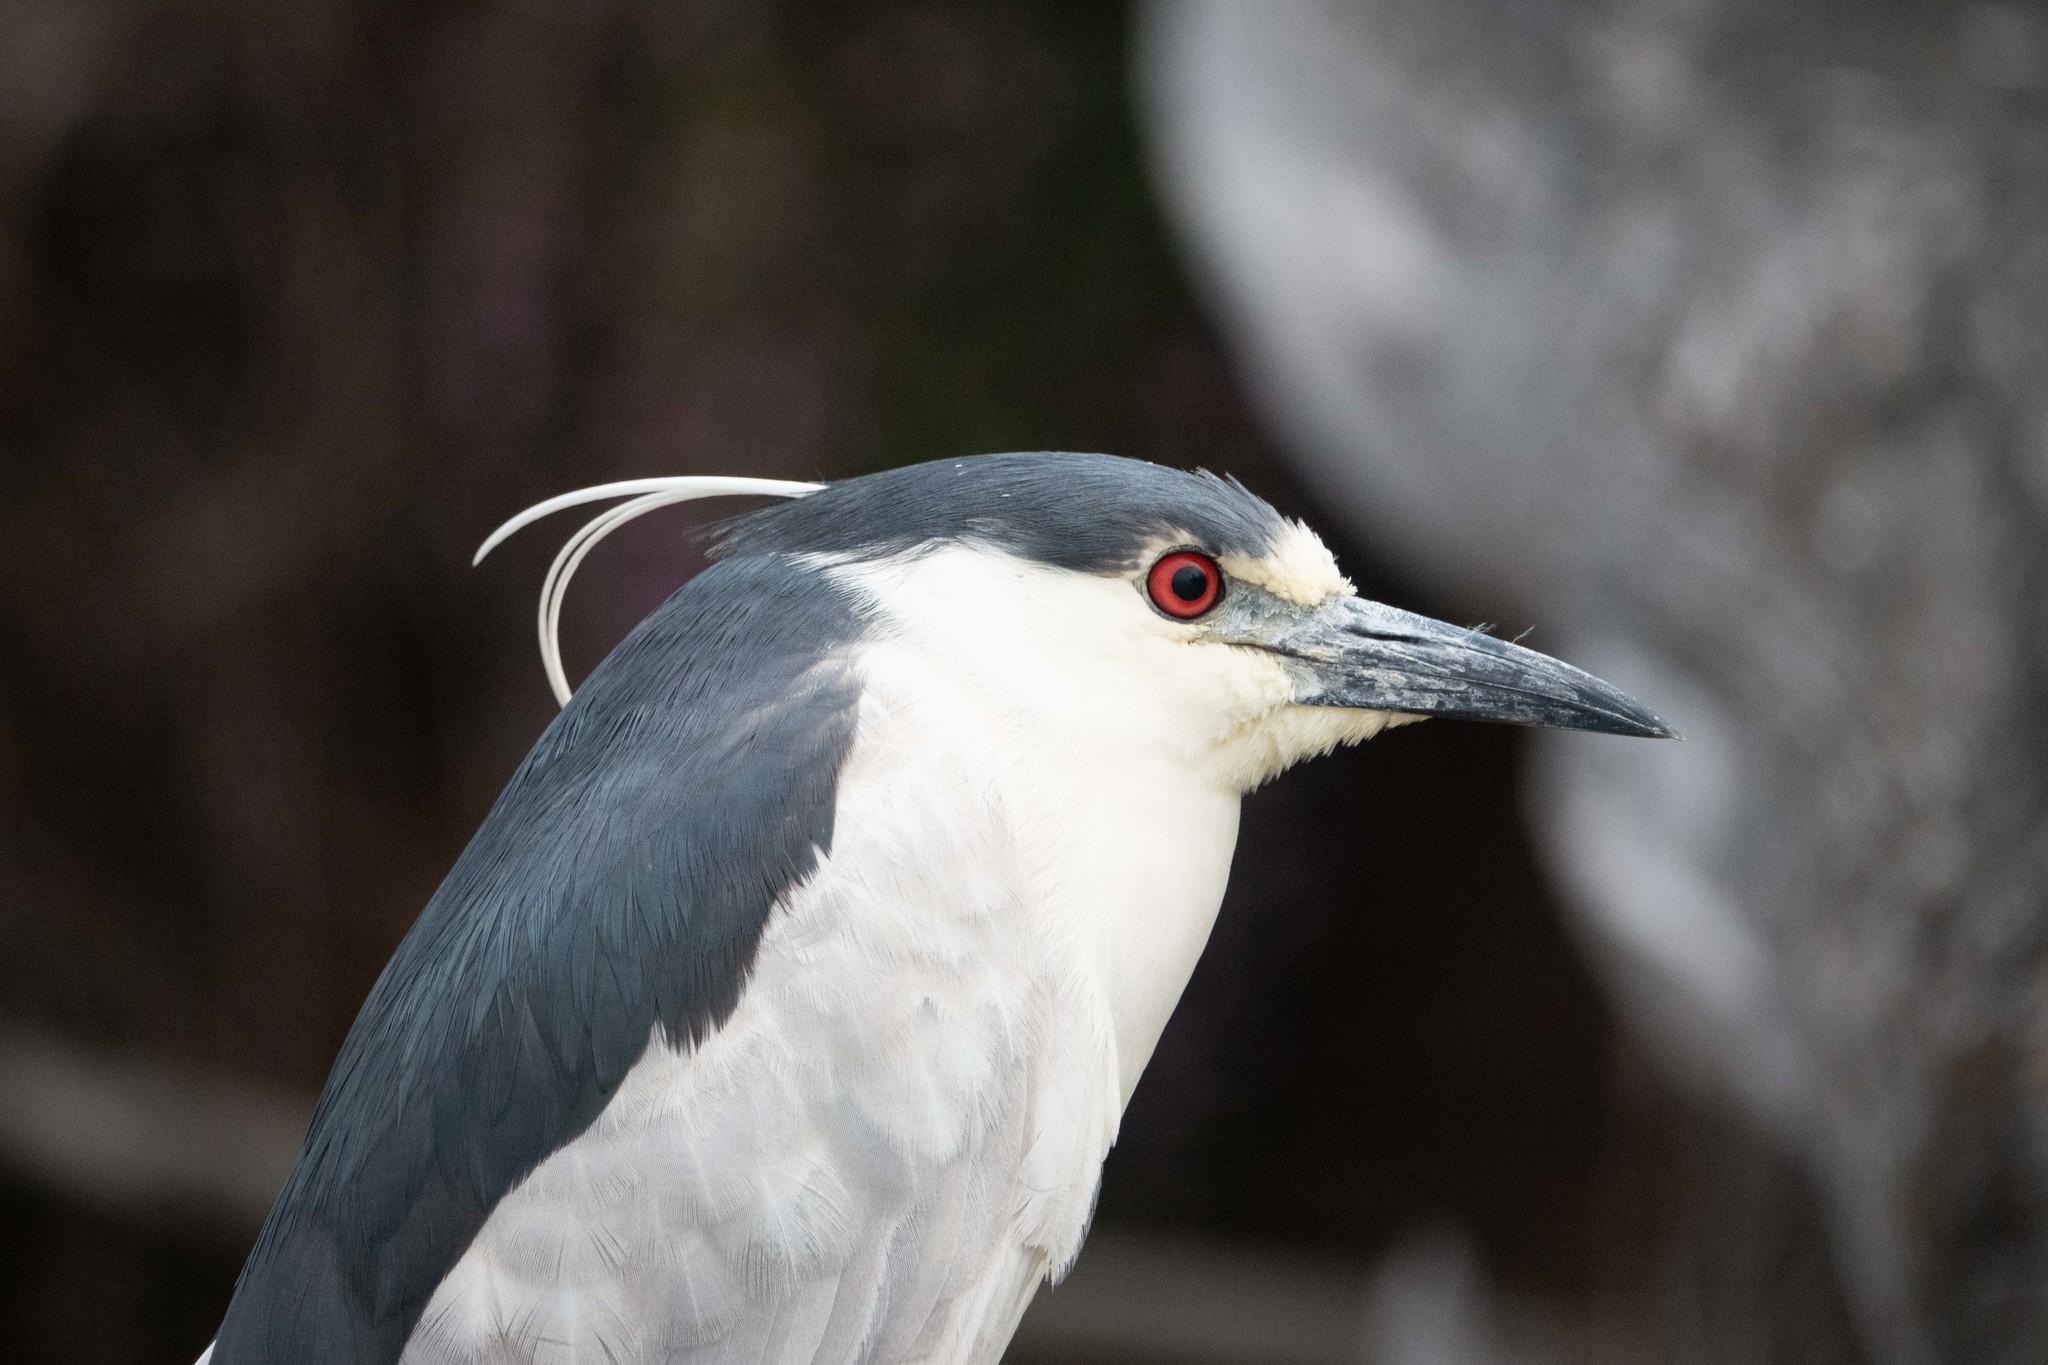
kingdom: Animalia
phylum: Chordata
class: Aves
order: Pelecaniformes
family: Ardeidae
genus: Nycticorax
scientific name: Nycticorax nycticorax
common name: Black-crowned night heron
